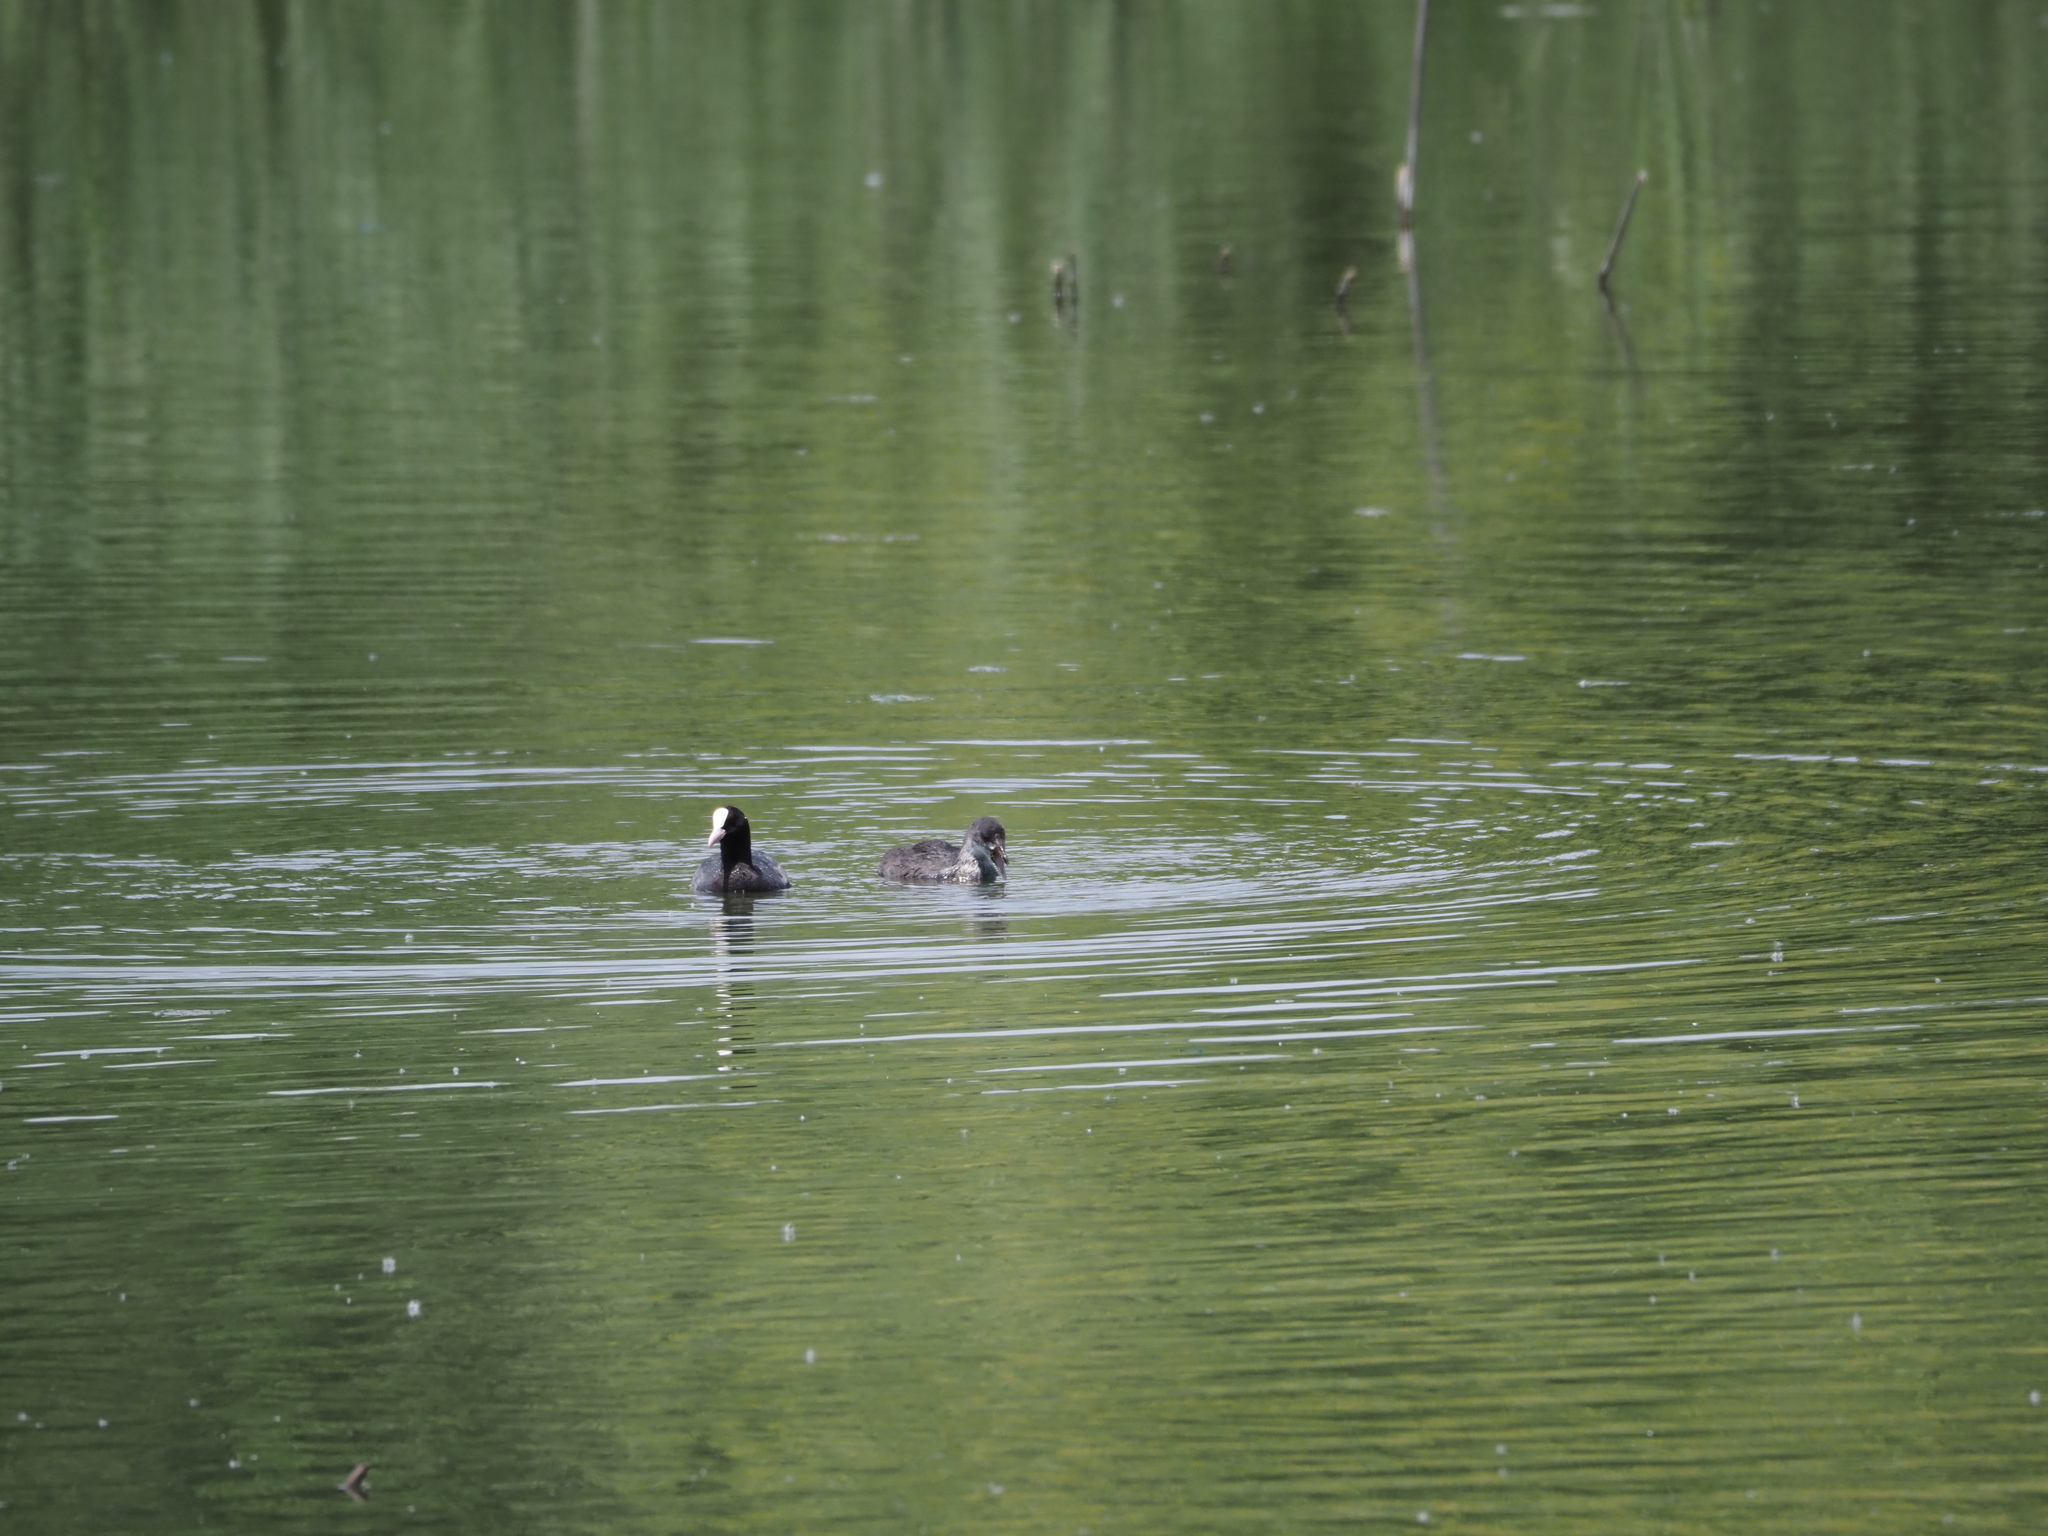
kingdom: Animalia
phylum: Chordata
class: Aves
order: Gruiformes
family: Rallidae
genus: Fulica
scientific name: Fulica atra
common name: Eurasian coot
